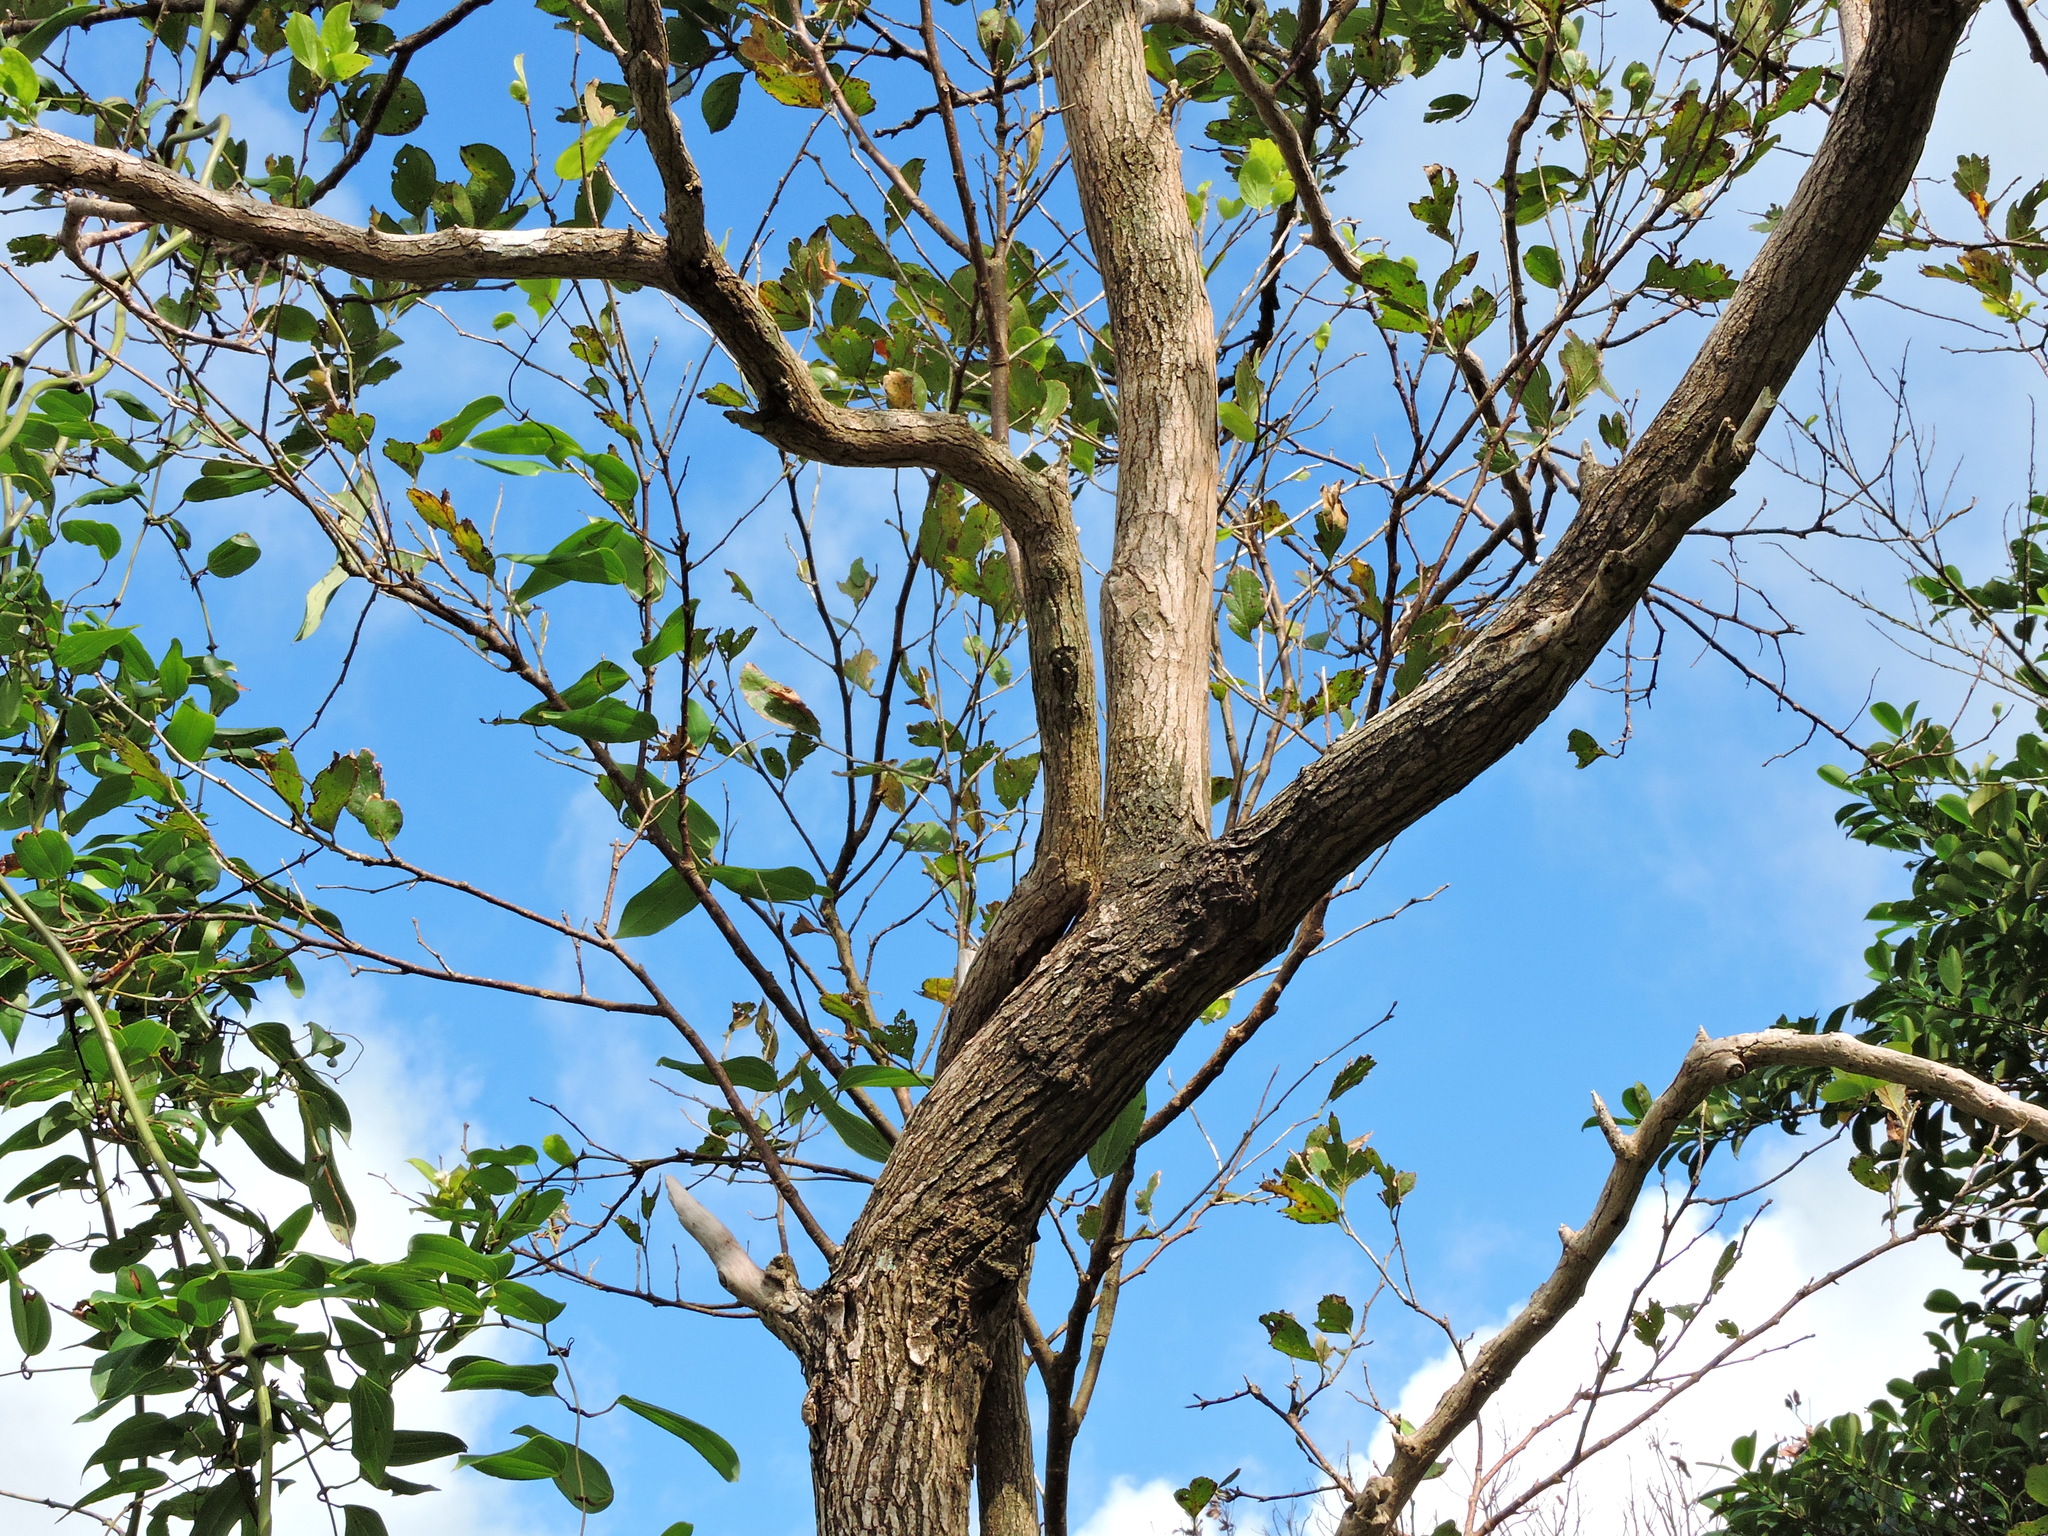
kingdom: Plantae
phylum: Tracheophyta
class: Magnoliopsida
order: Ericales
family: Symplocaceae
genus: Symplocos
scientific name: Symplocos paniculata
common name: Sapphire-berry
